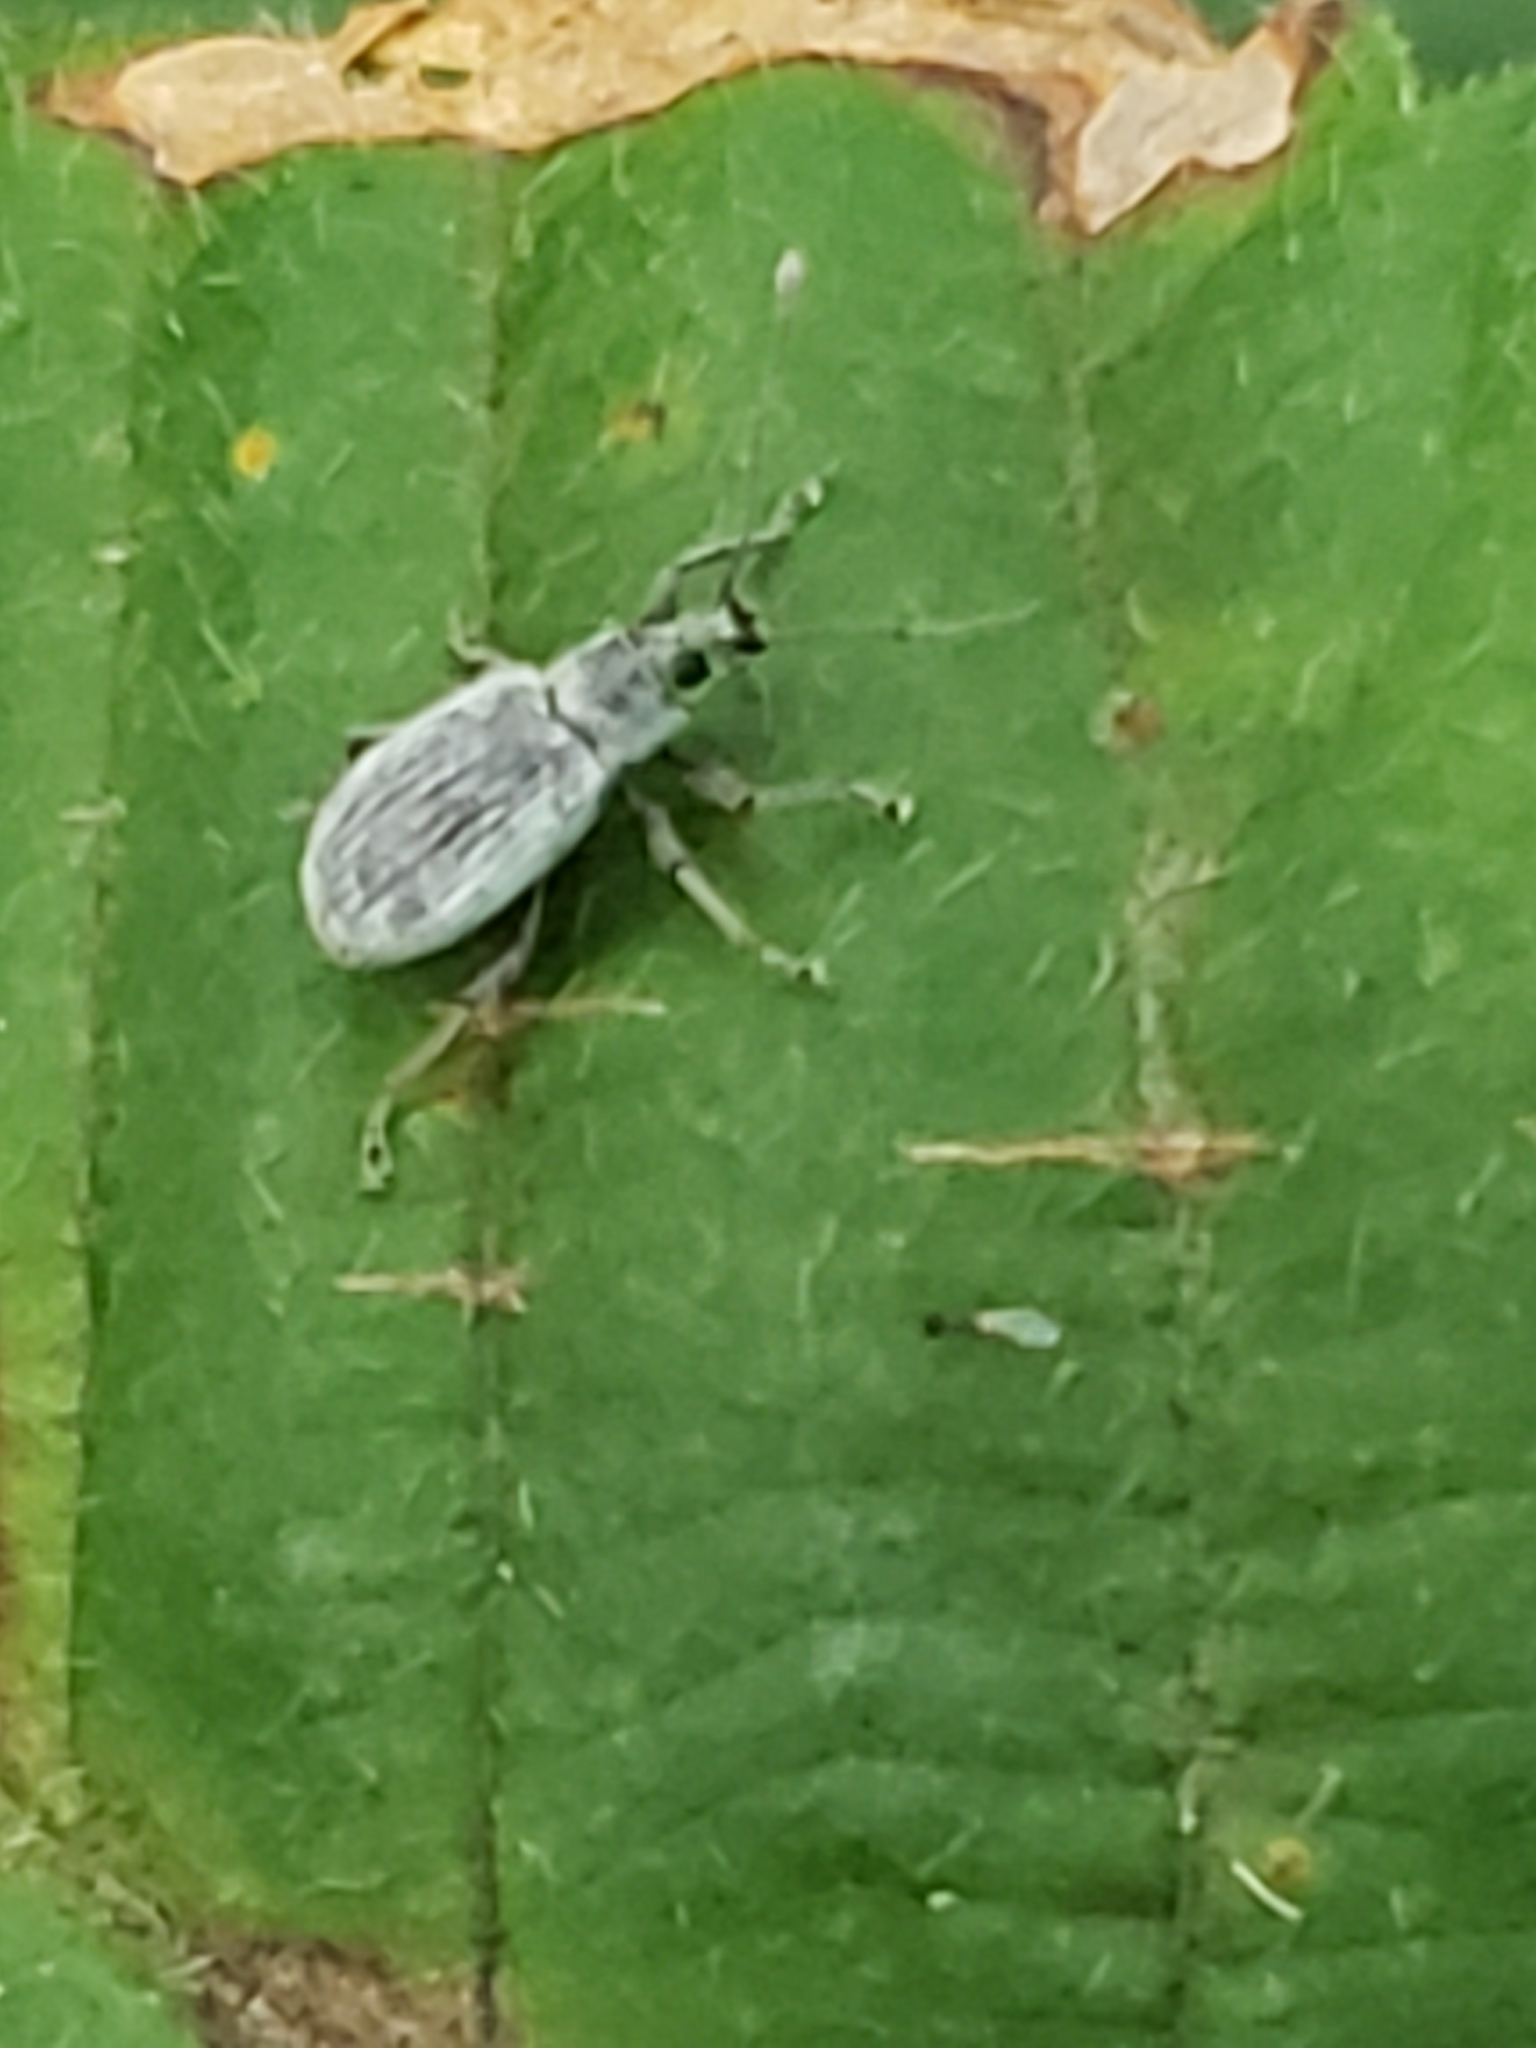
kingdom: Animalia
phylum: Arthropoda
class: Insecta
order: Coleoptera
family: Curculionidae
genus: Cyrtepistomus
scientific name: Cyrtepistomus castaneus
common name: Weevil
